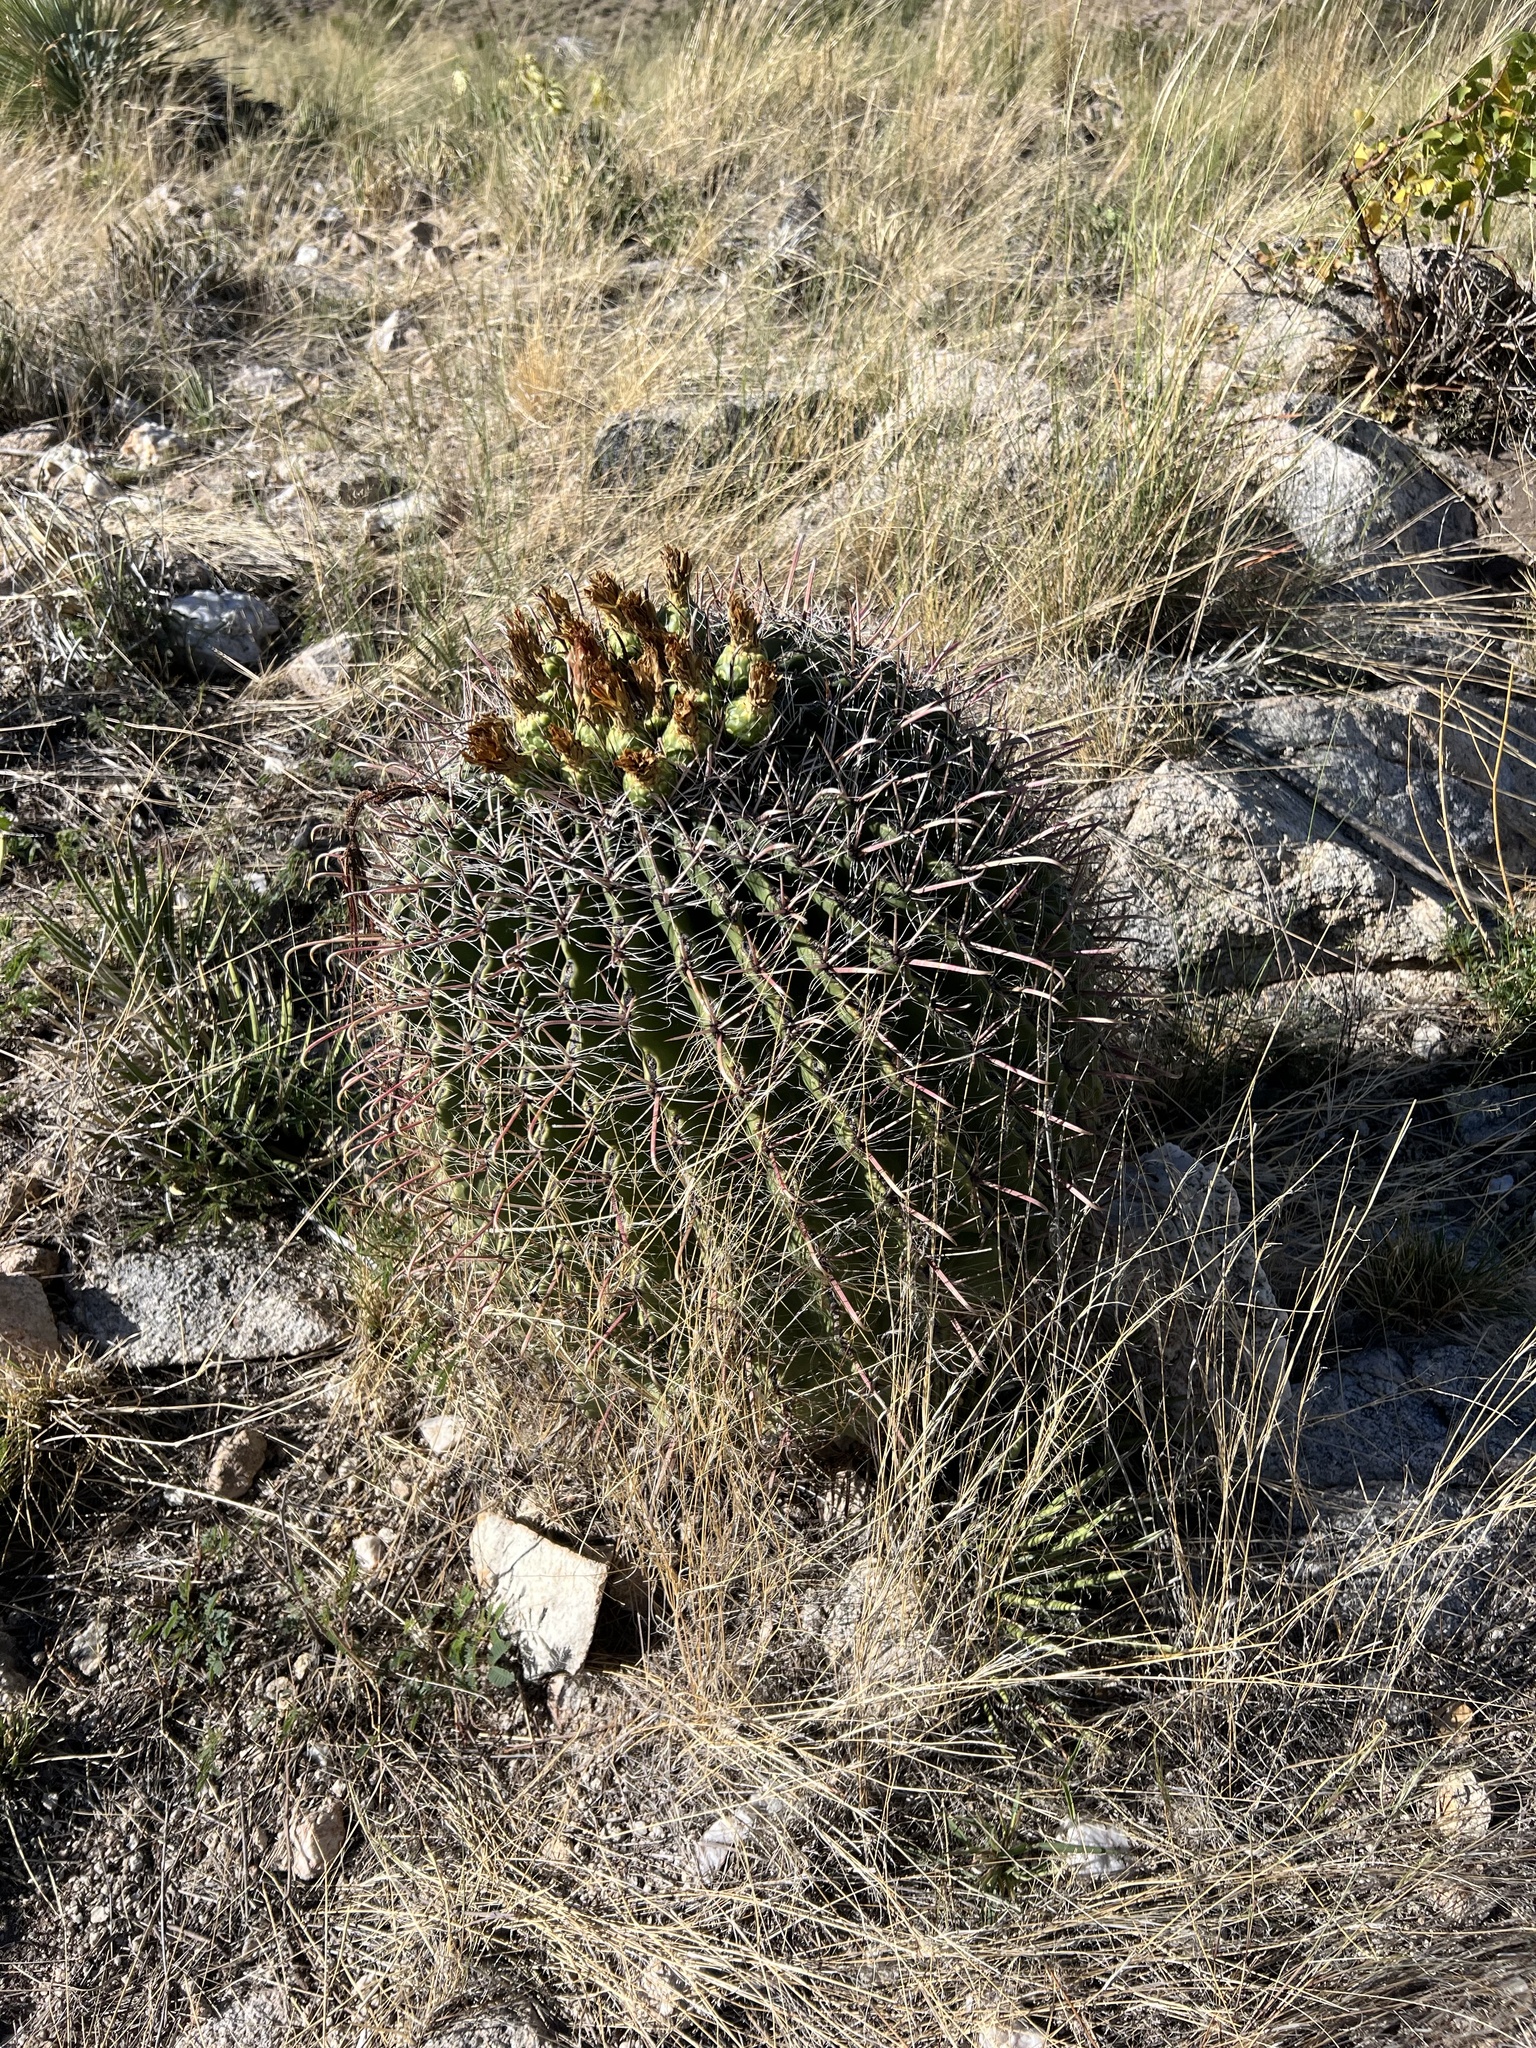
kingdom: Plantae
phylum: Tracheophyta
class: Magnoliopsida
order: Caryophyllales
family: Cactaceae
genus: Ferocactus
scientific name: Ferocactus wislizeni
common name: Candy barrel cactus
